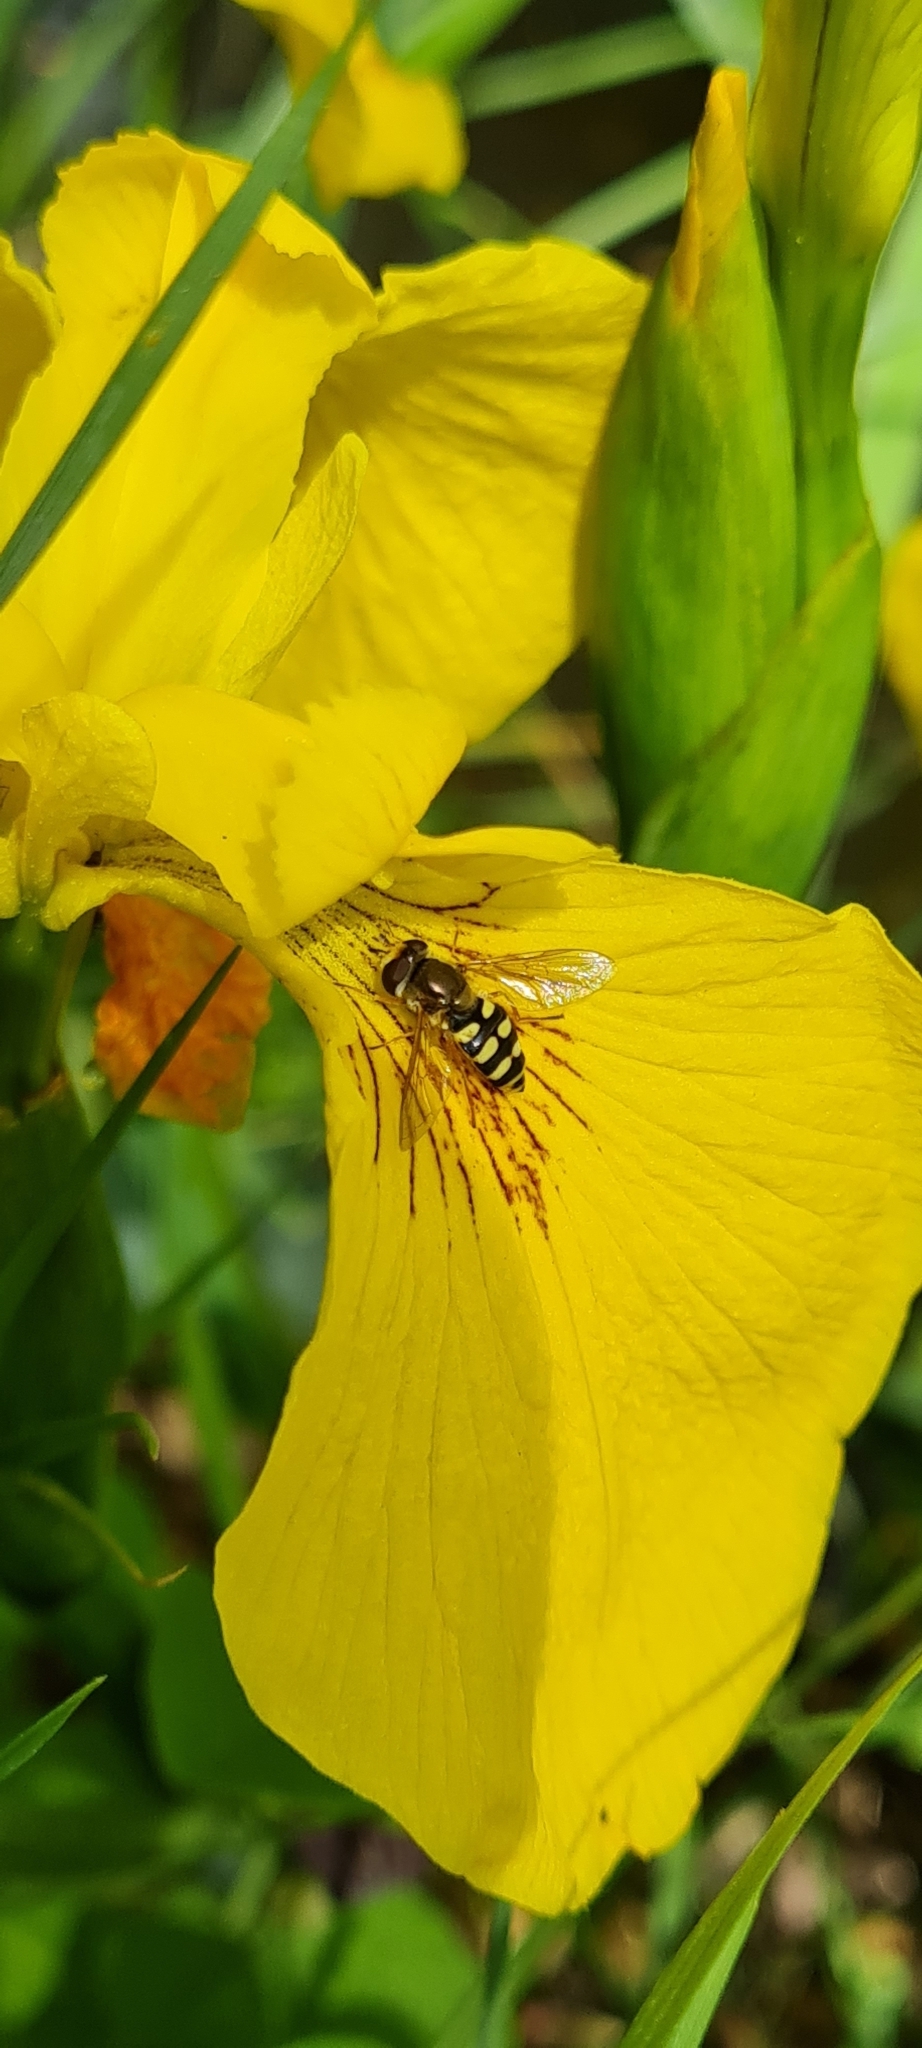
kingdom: Animalia
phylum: Arthropoda
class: Insecta
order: Diptera
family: Syrphidae
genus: Eupeodes
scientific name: Eupeodes corollae
